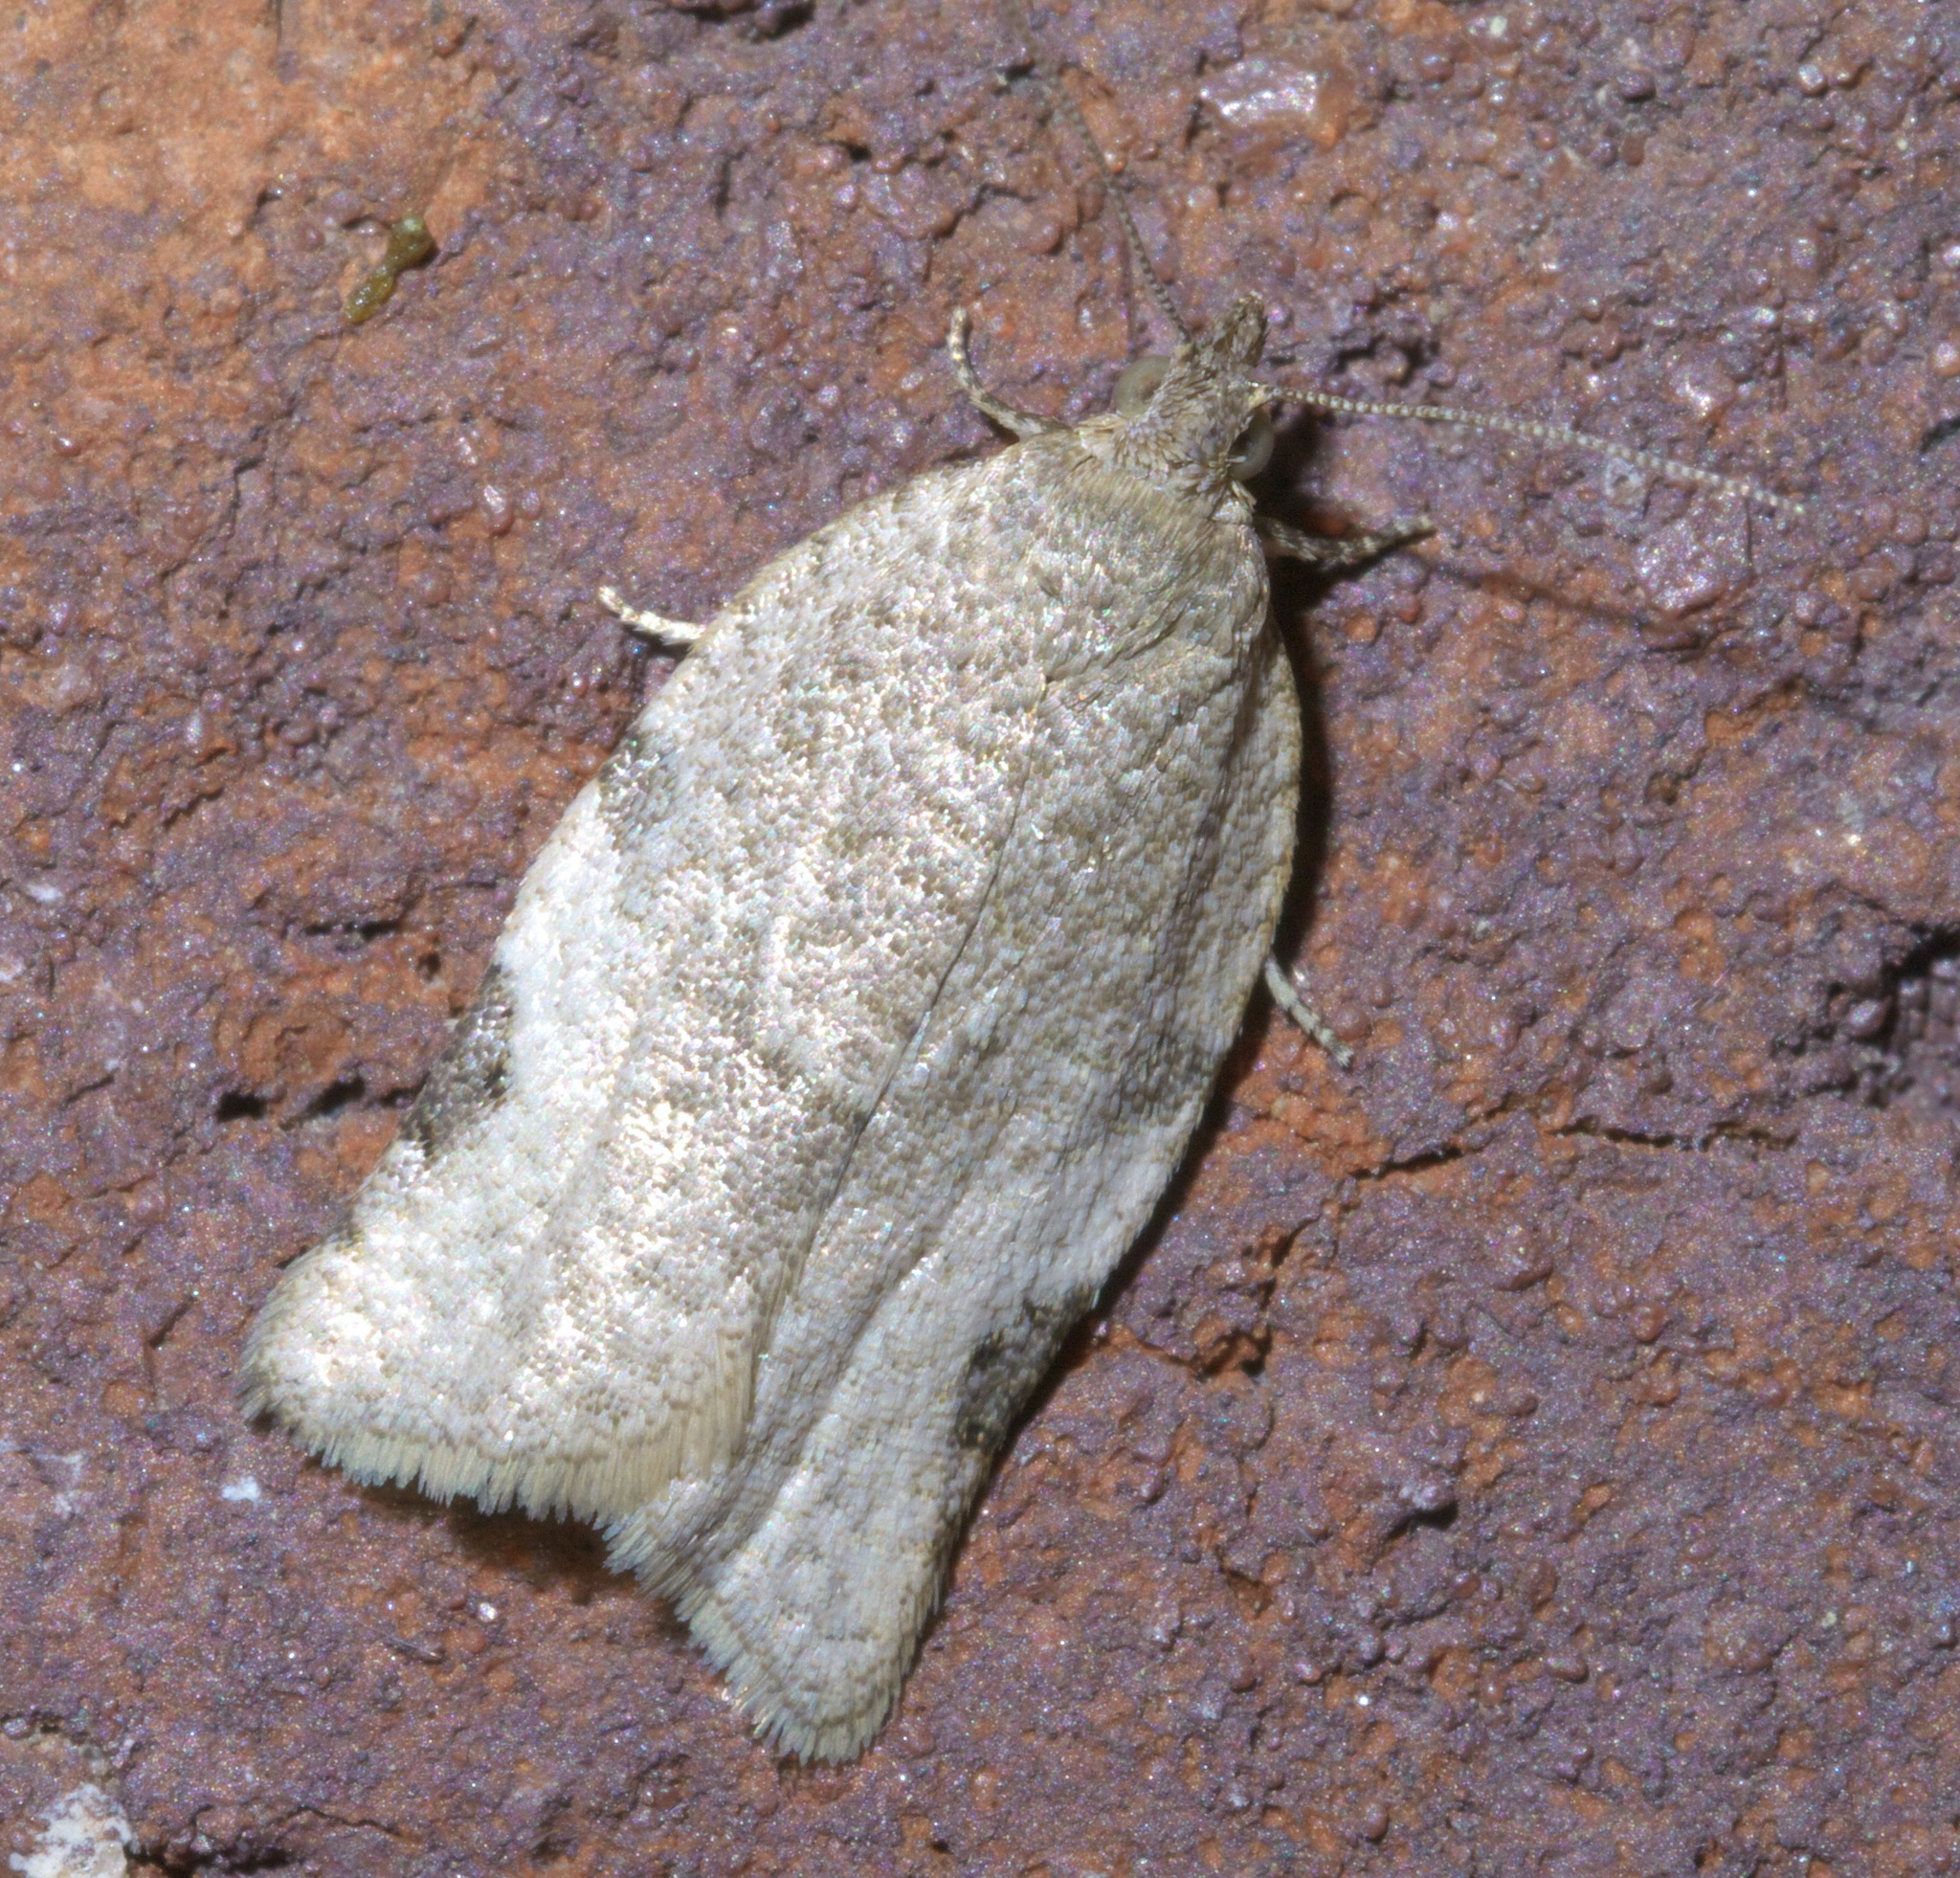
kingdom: Animalia
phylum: Arthropoda
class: Insecta
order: Lepidoptera
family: Tortricidae
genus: Clepsis
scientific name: Clepsis virescana
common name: Greenish apple moth
